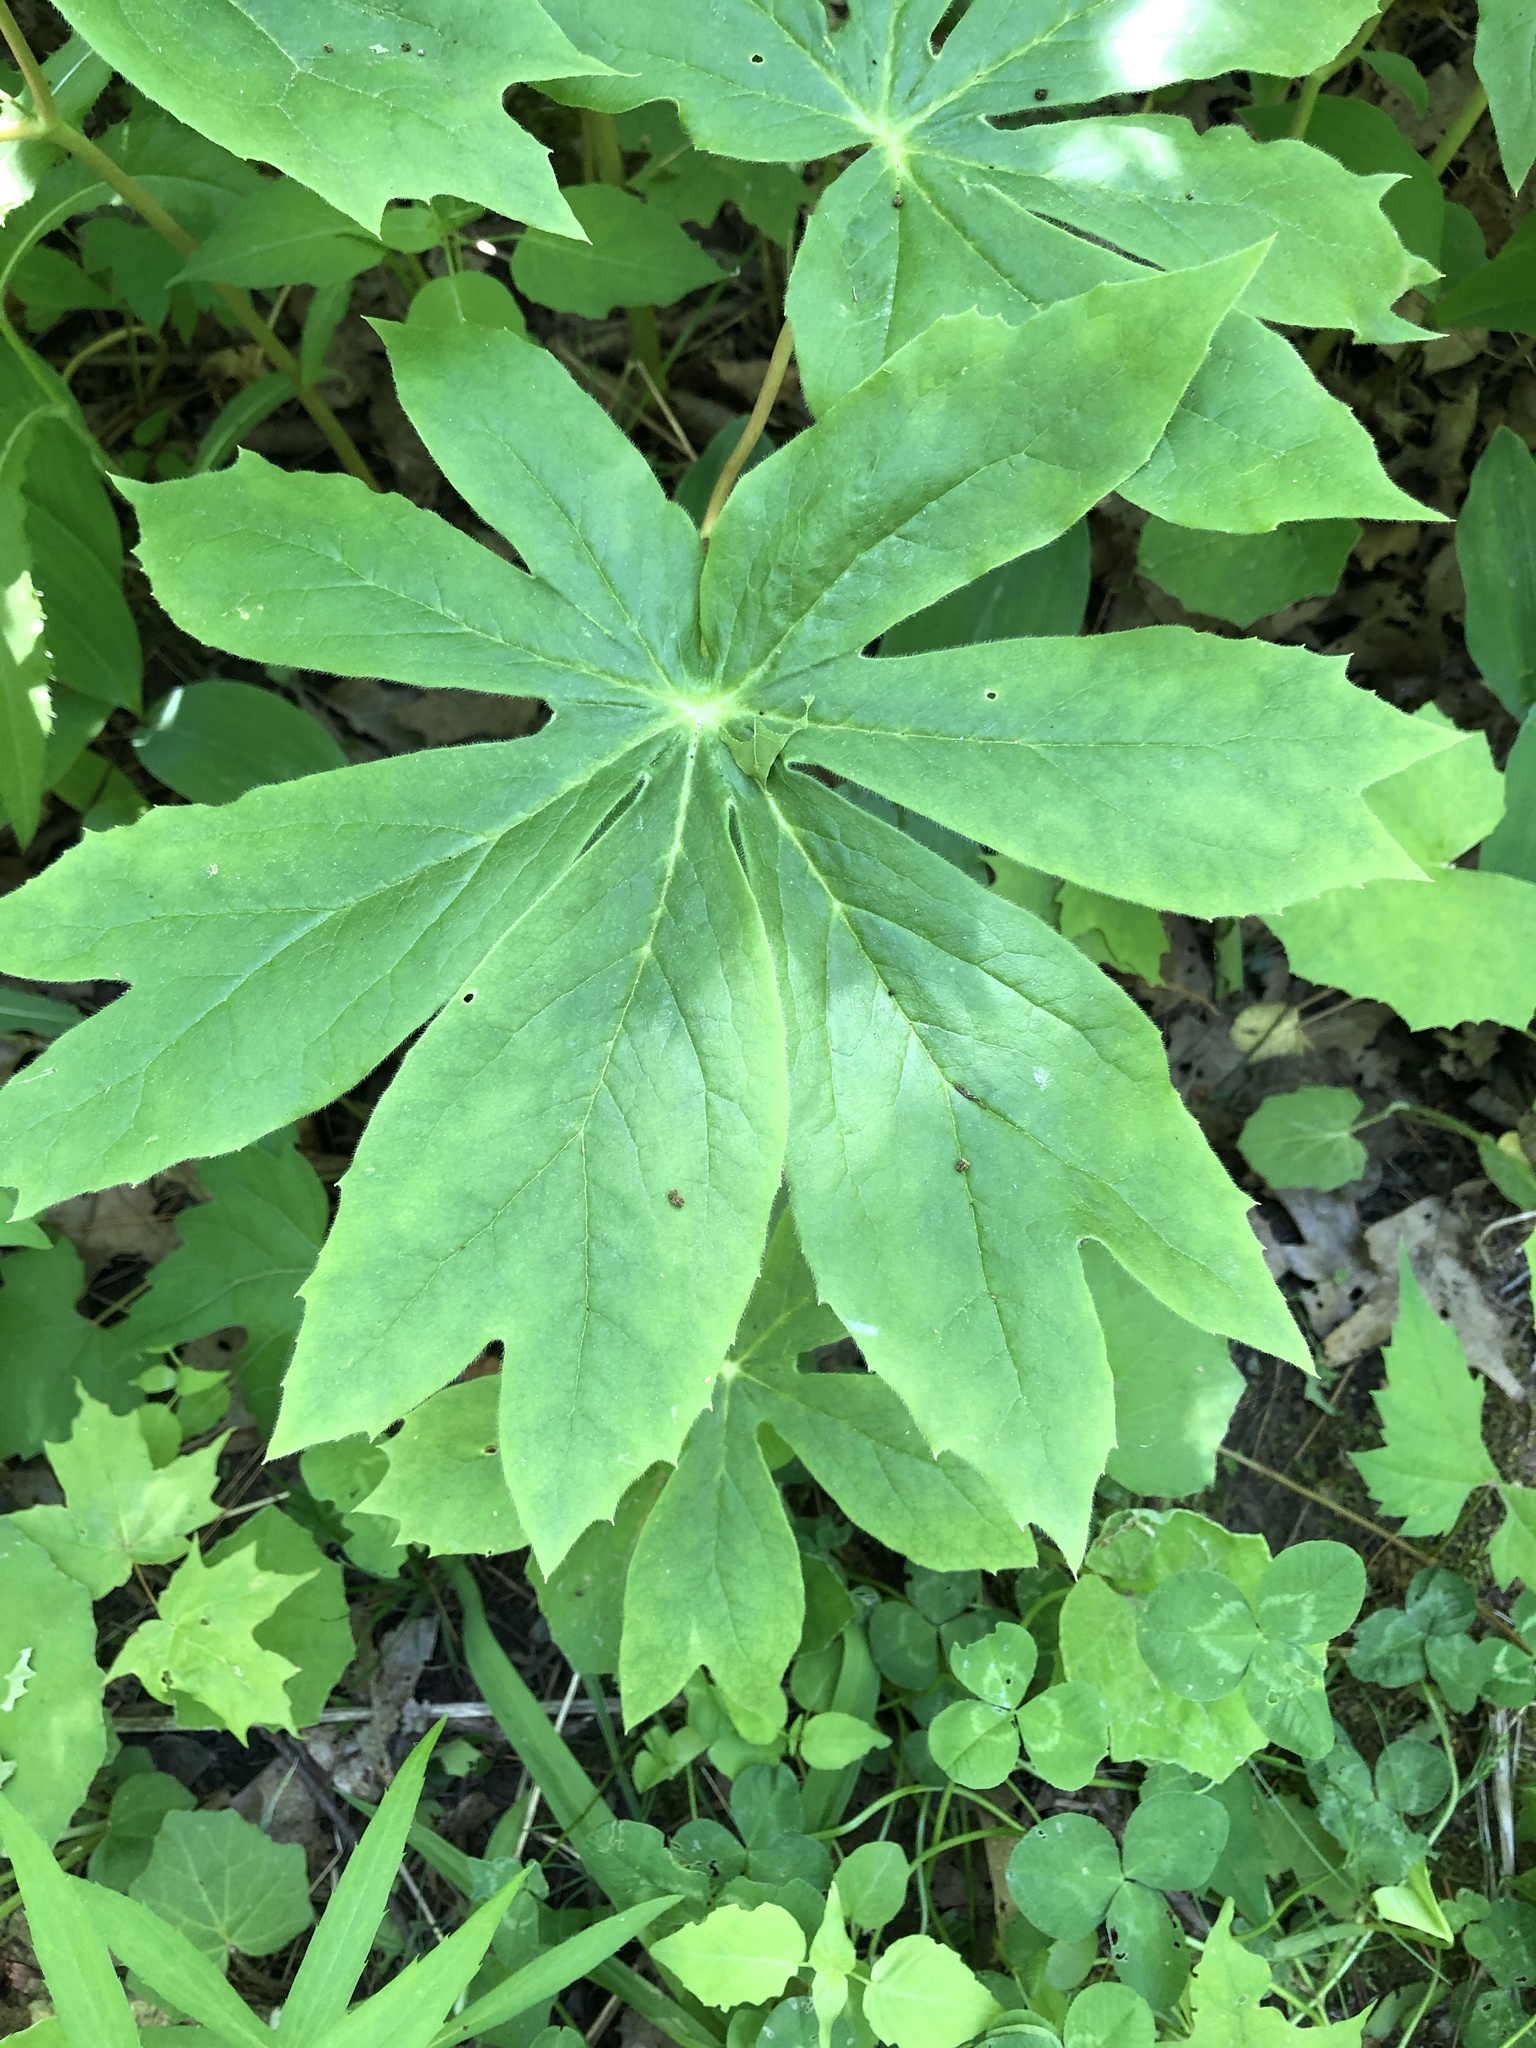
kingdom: Plantae
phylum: Tracheophyta
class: Magnoliopsida
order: Ranunculales
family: Berberidaceae
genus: Podophyllum
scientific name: Podophyllum peltatum
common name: Wild mandrake
